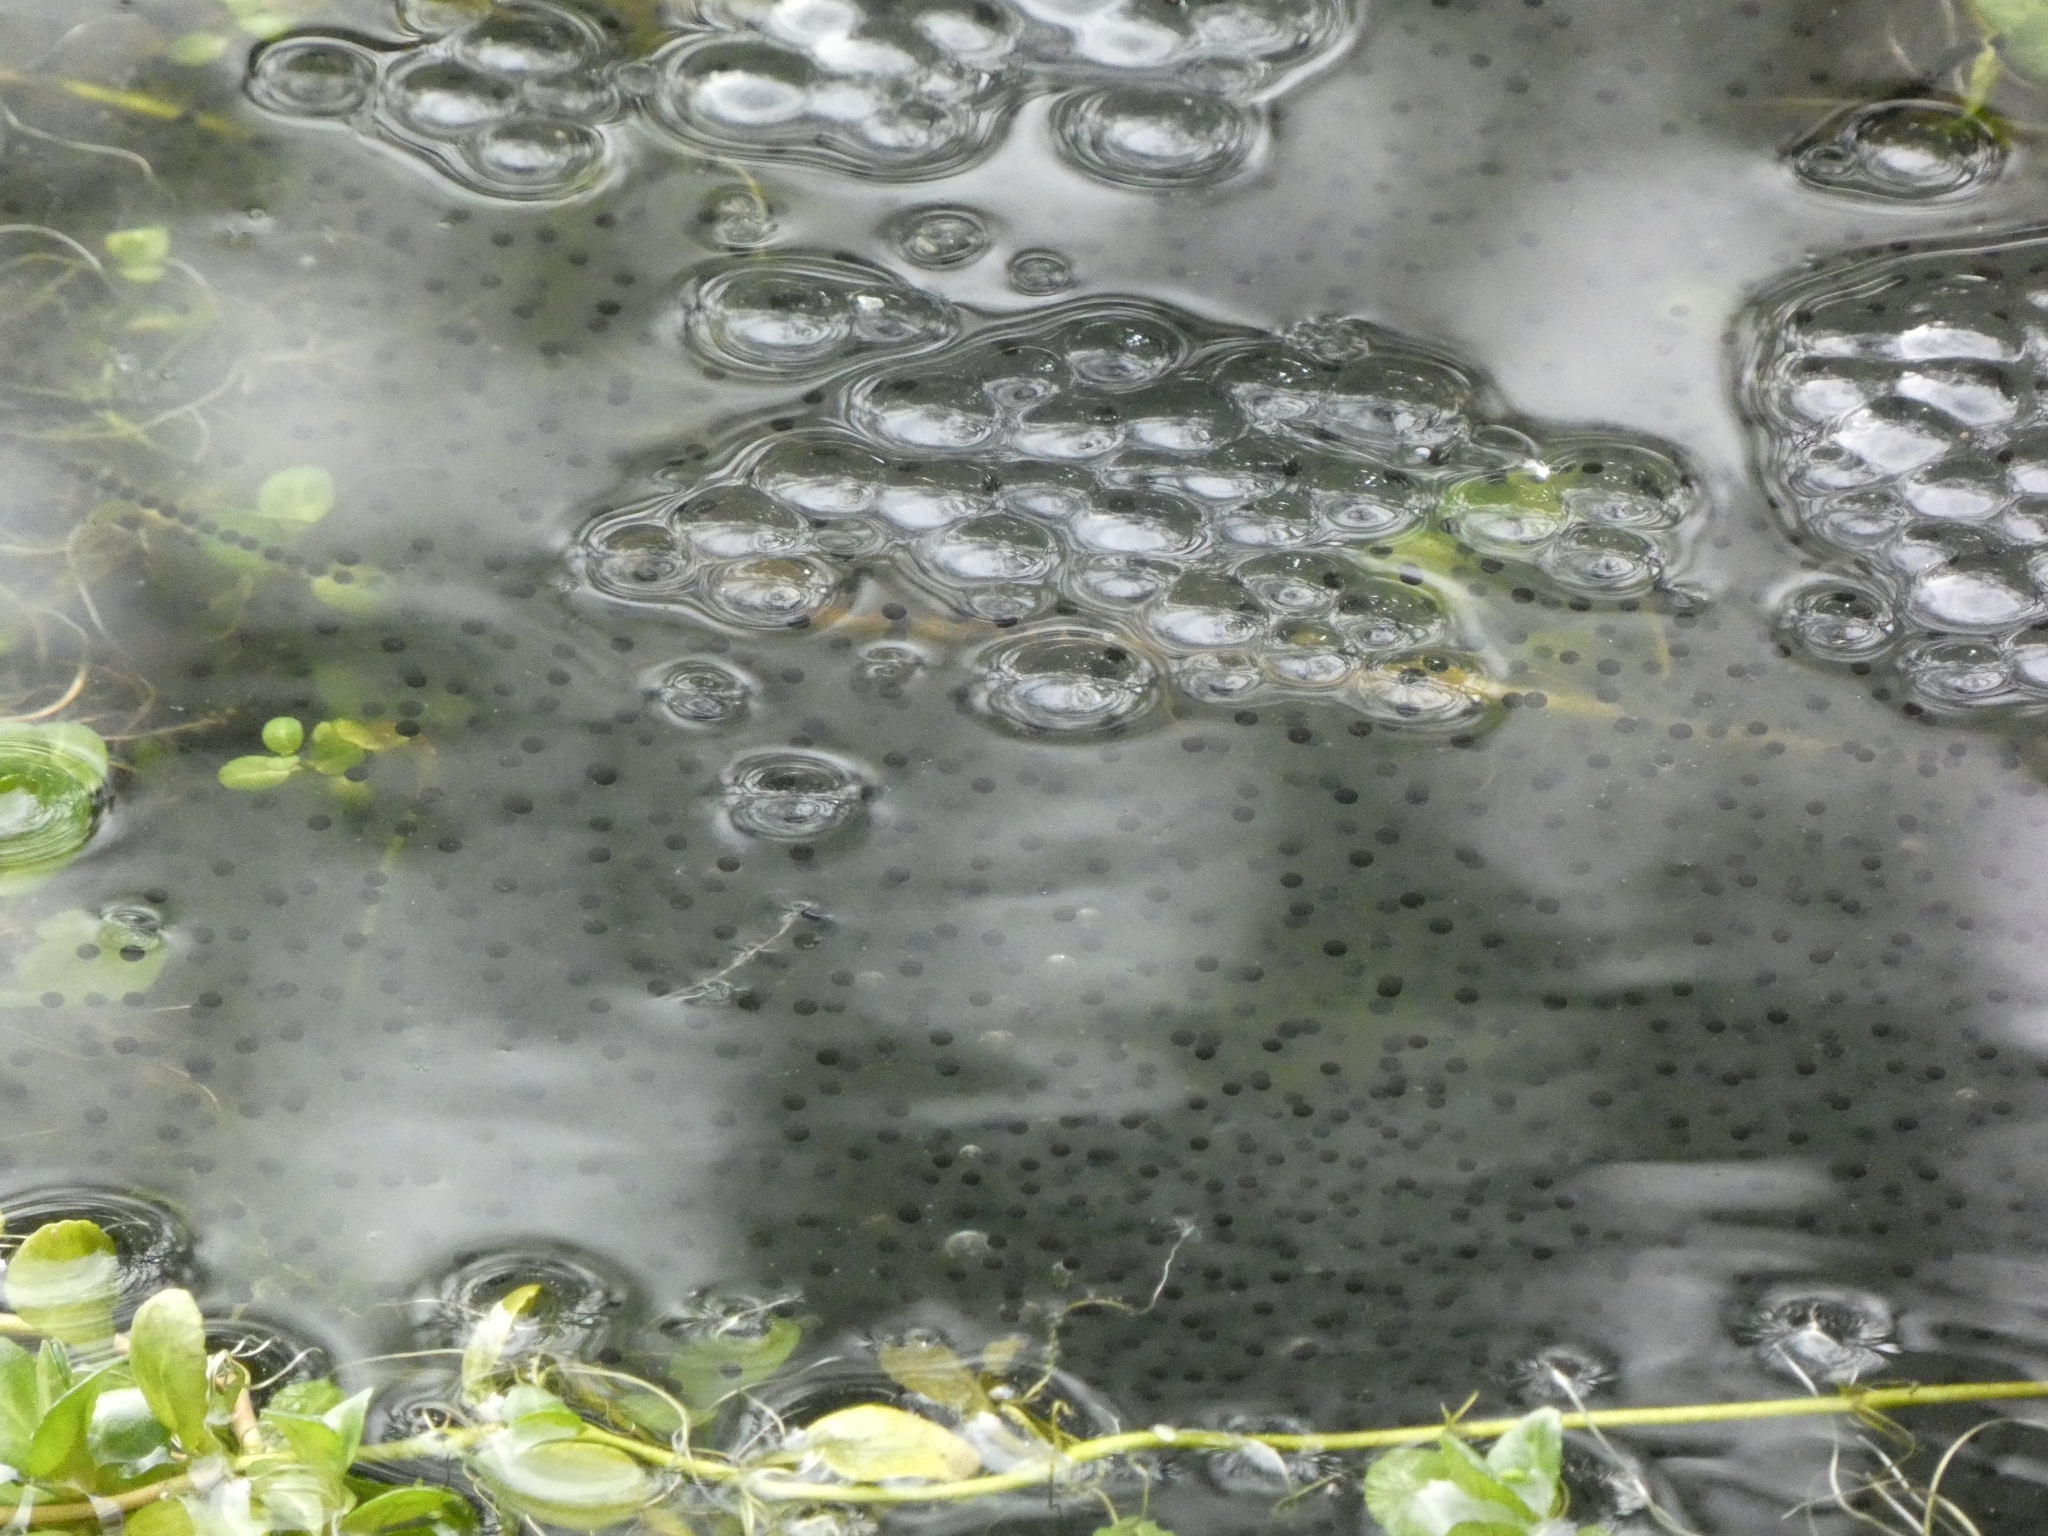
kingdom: Animalia
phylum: Chordata
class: Amphibia
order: Anura
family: Ranidae
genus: Rana
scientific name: Rana temporaria
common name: Common frog
